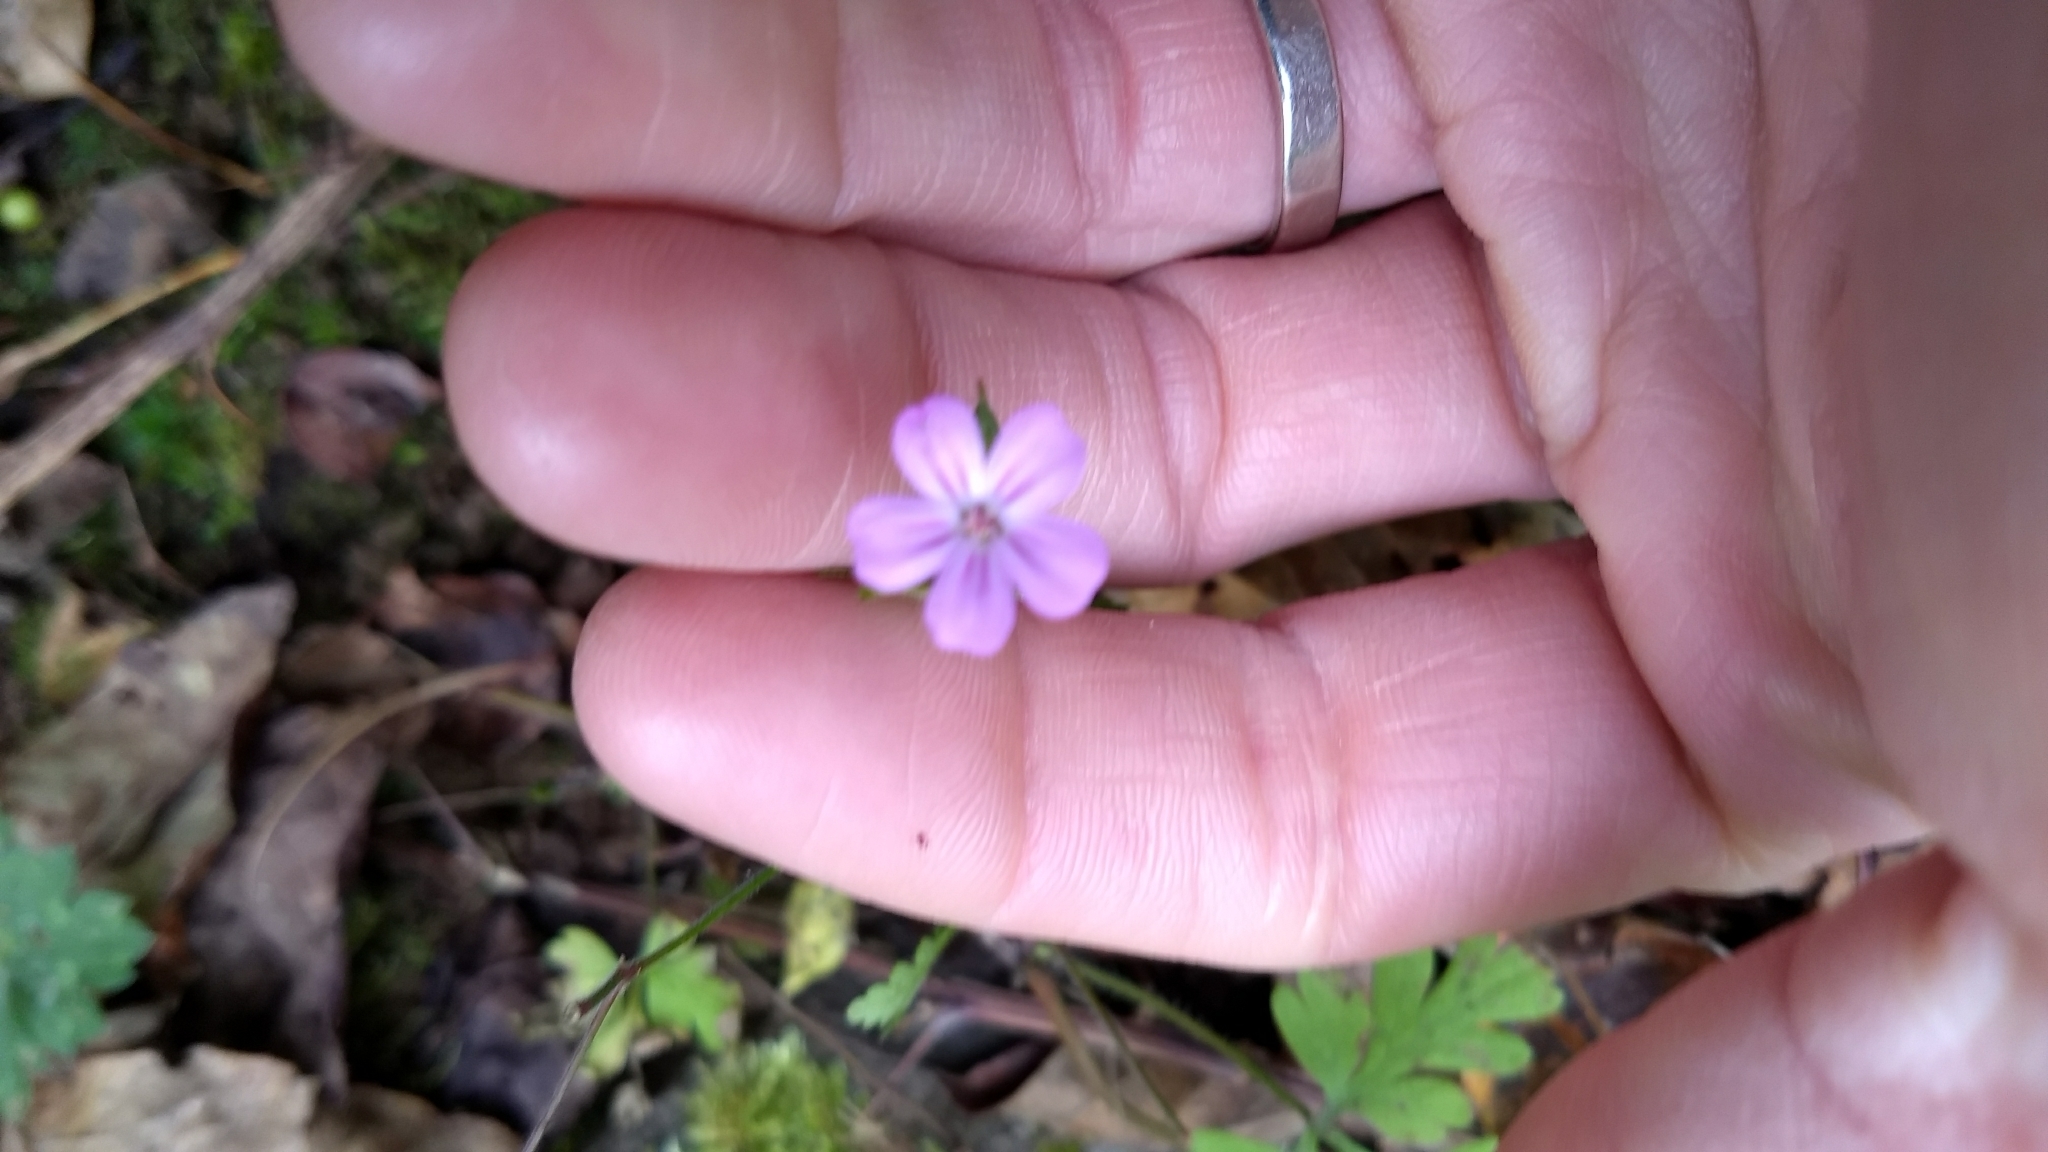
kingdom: Plantae
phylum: Tracheophyta
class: Magnoliopsida
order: Geraniales
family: Geraniaceae
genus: Geranium
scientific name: Geranium robertianum
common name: Herb-robert
